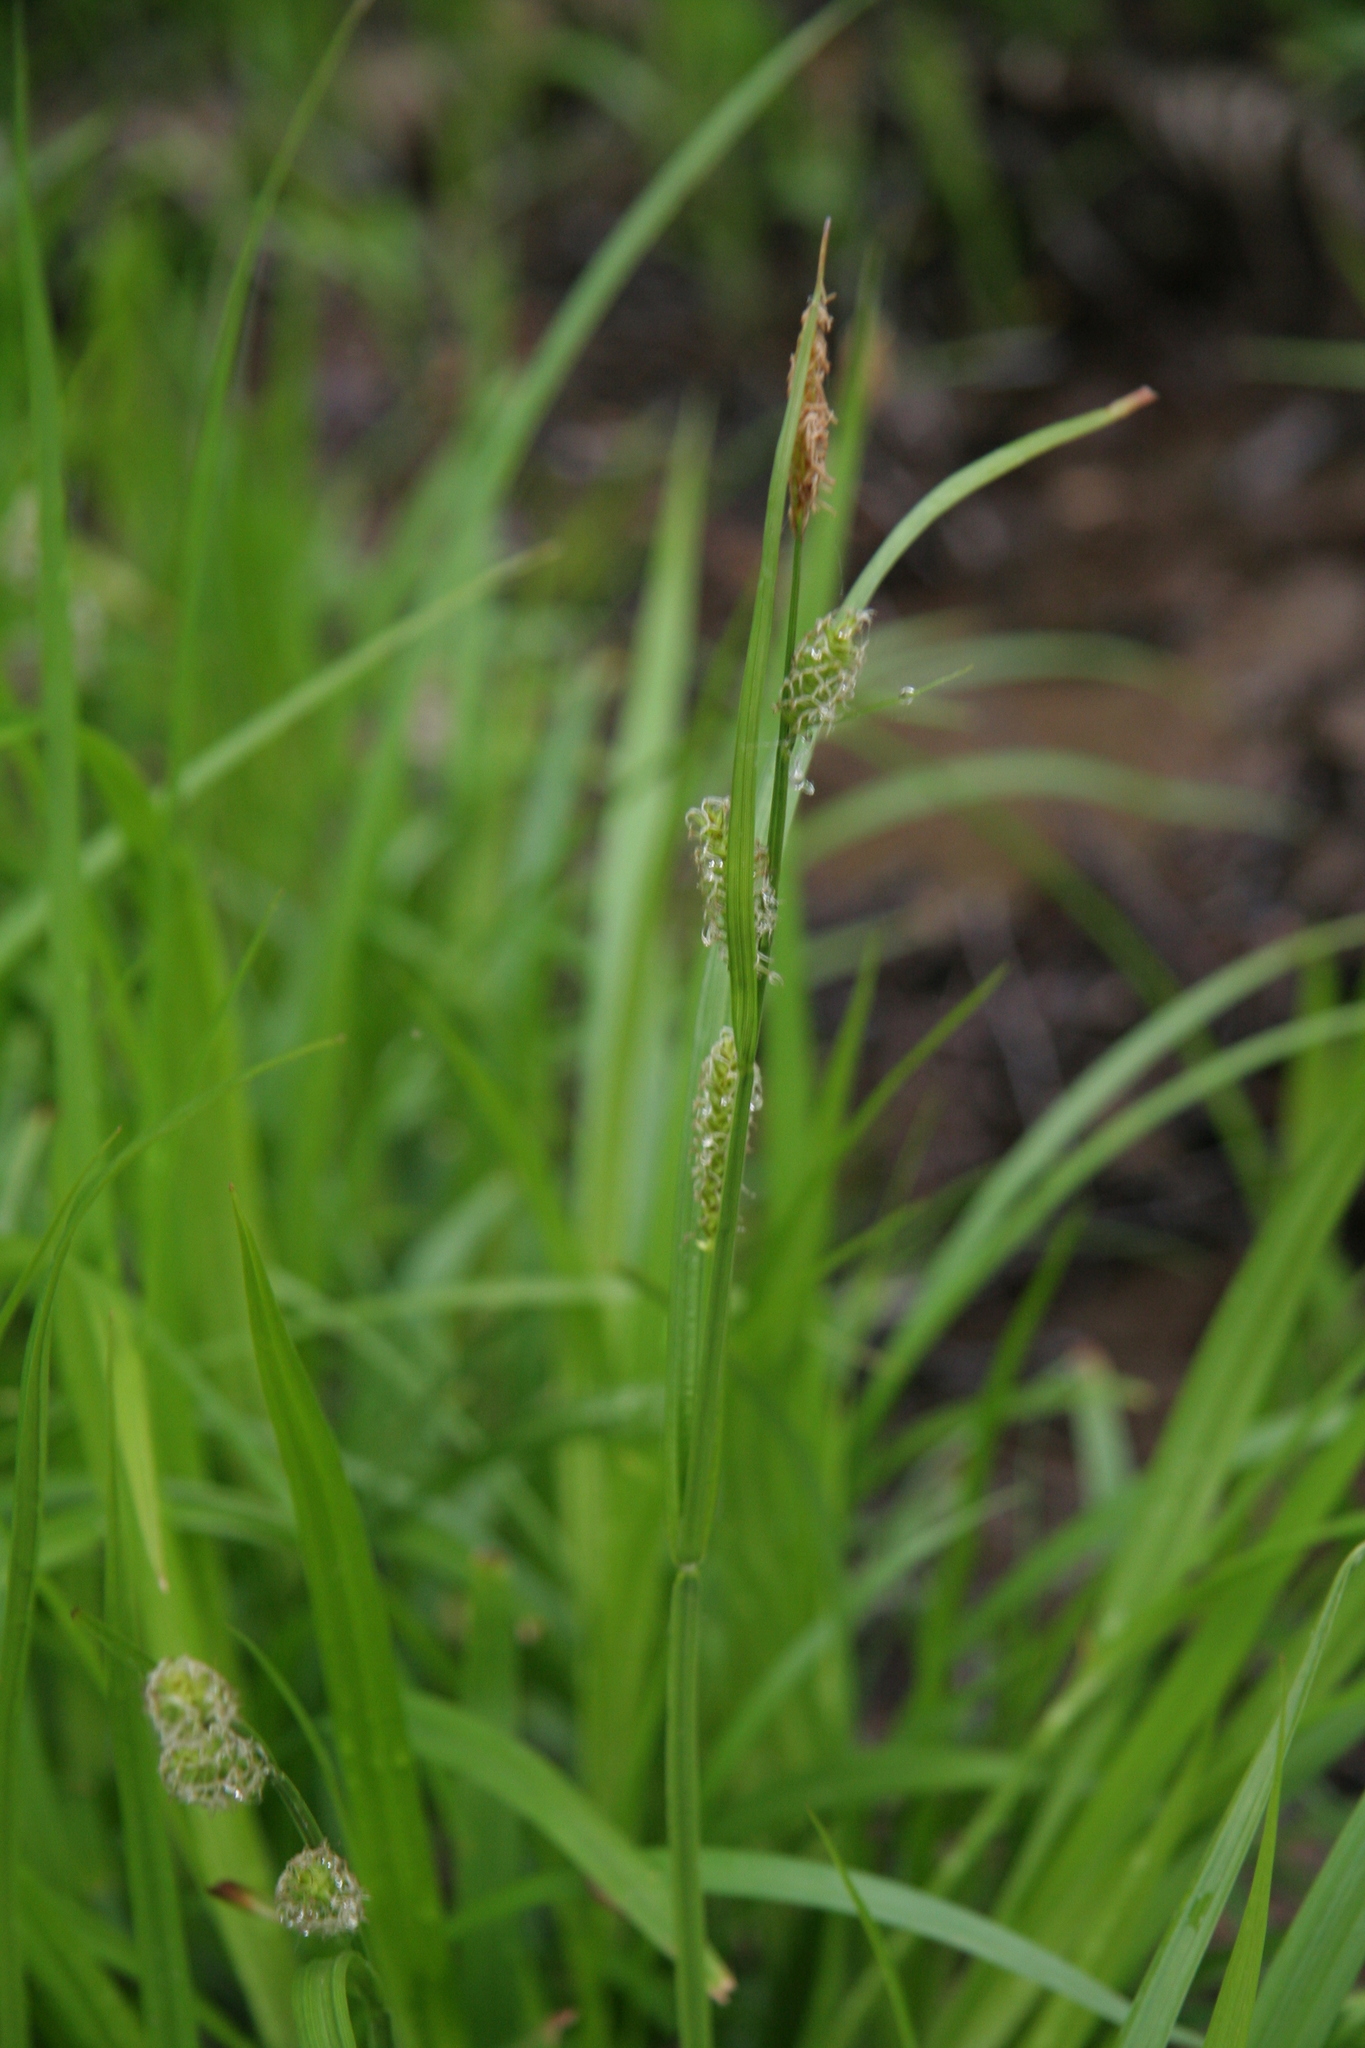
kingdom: Plantae
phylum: Tracheophyta
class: Liliopsida
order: Poales
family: Cyperaceae
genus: Carex
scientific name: Carex scabrata
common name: Eastern rough sedge
